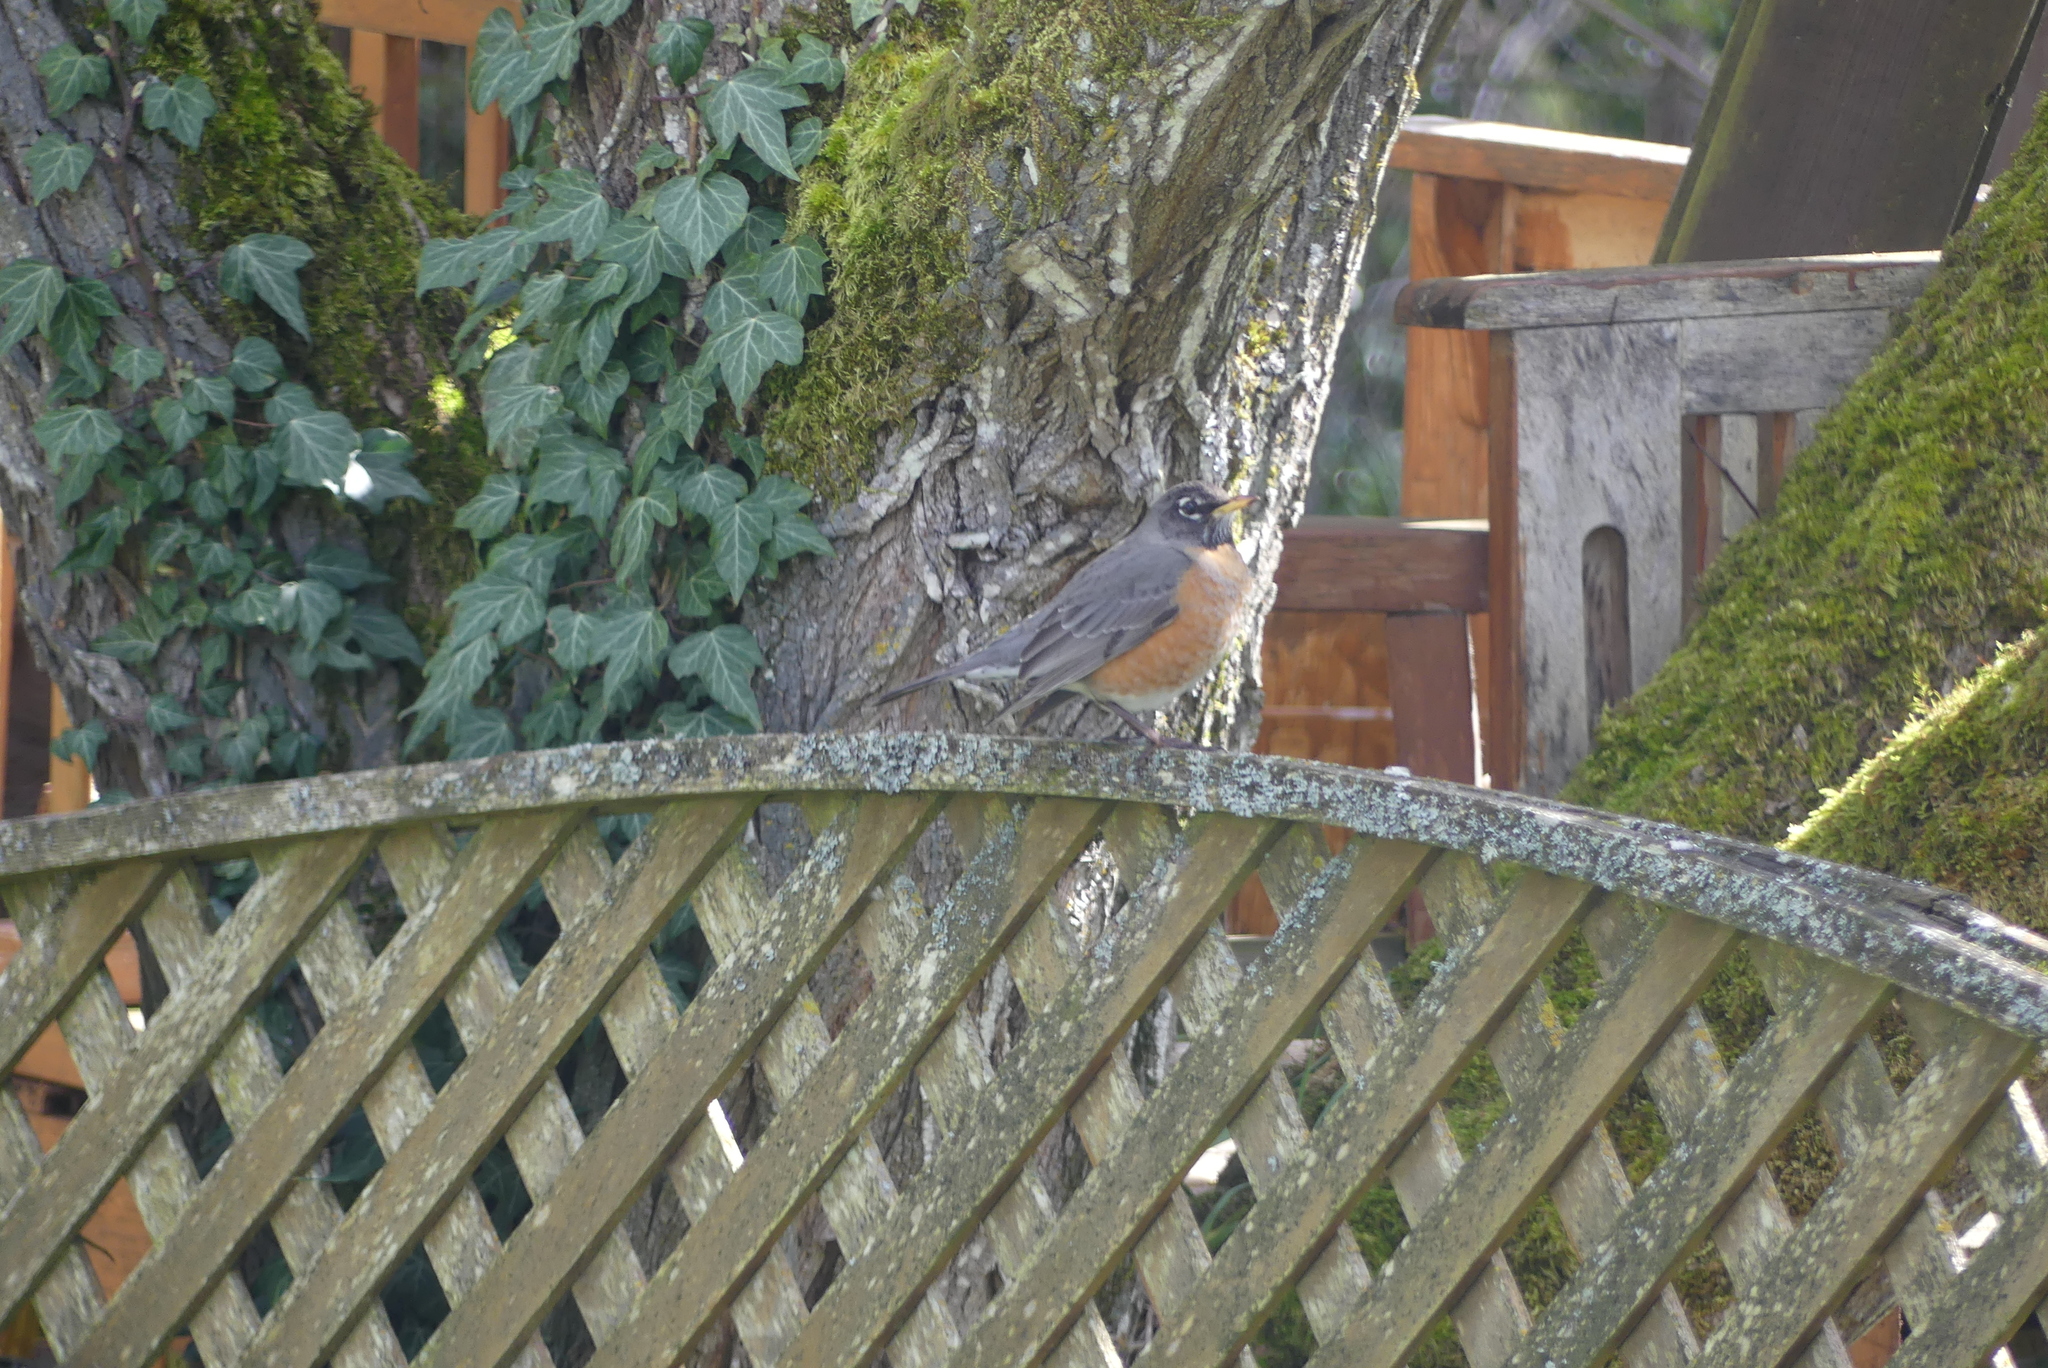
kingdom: Animalia
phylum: Chordata
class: Aves
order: Passeriformes
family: Turdidae
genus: Turdus
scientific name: Turdus migratorius
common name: American robin
